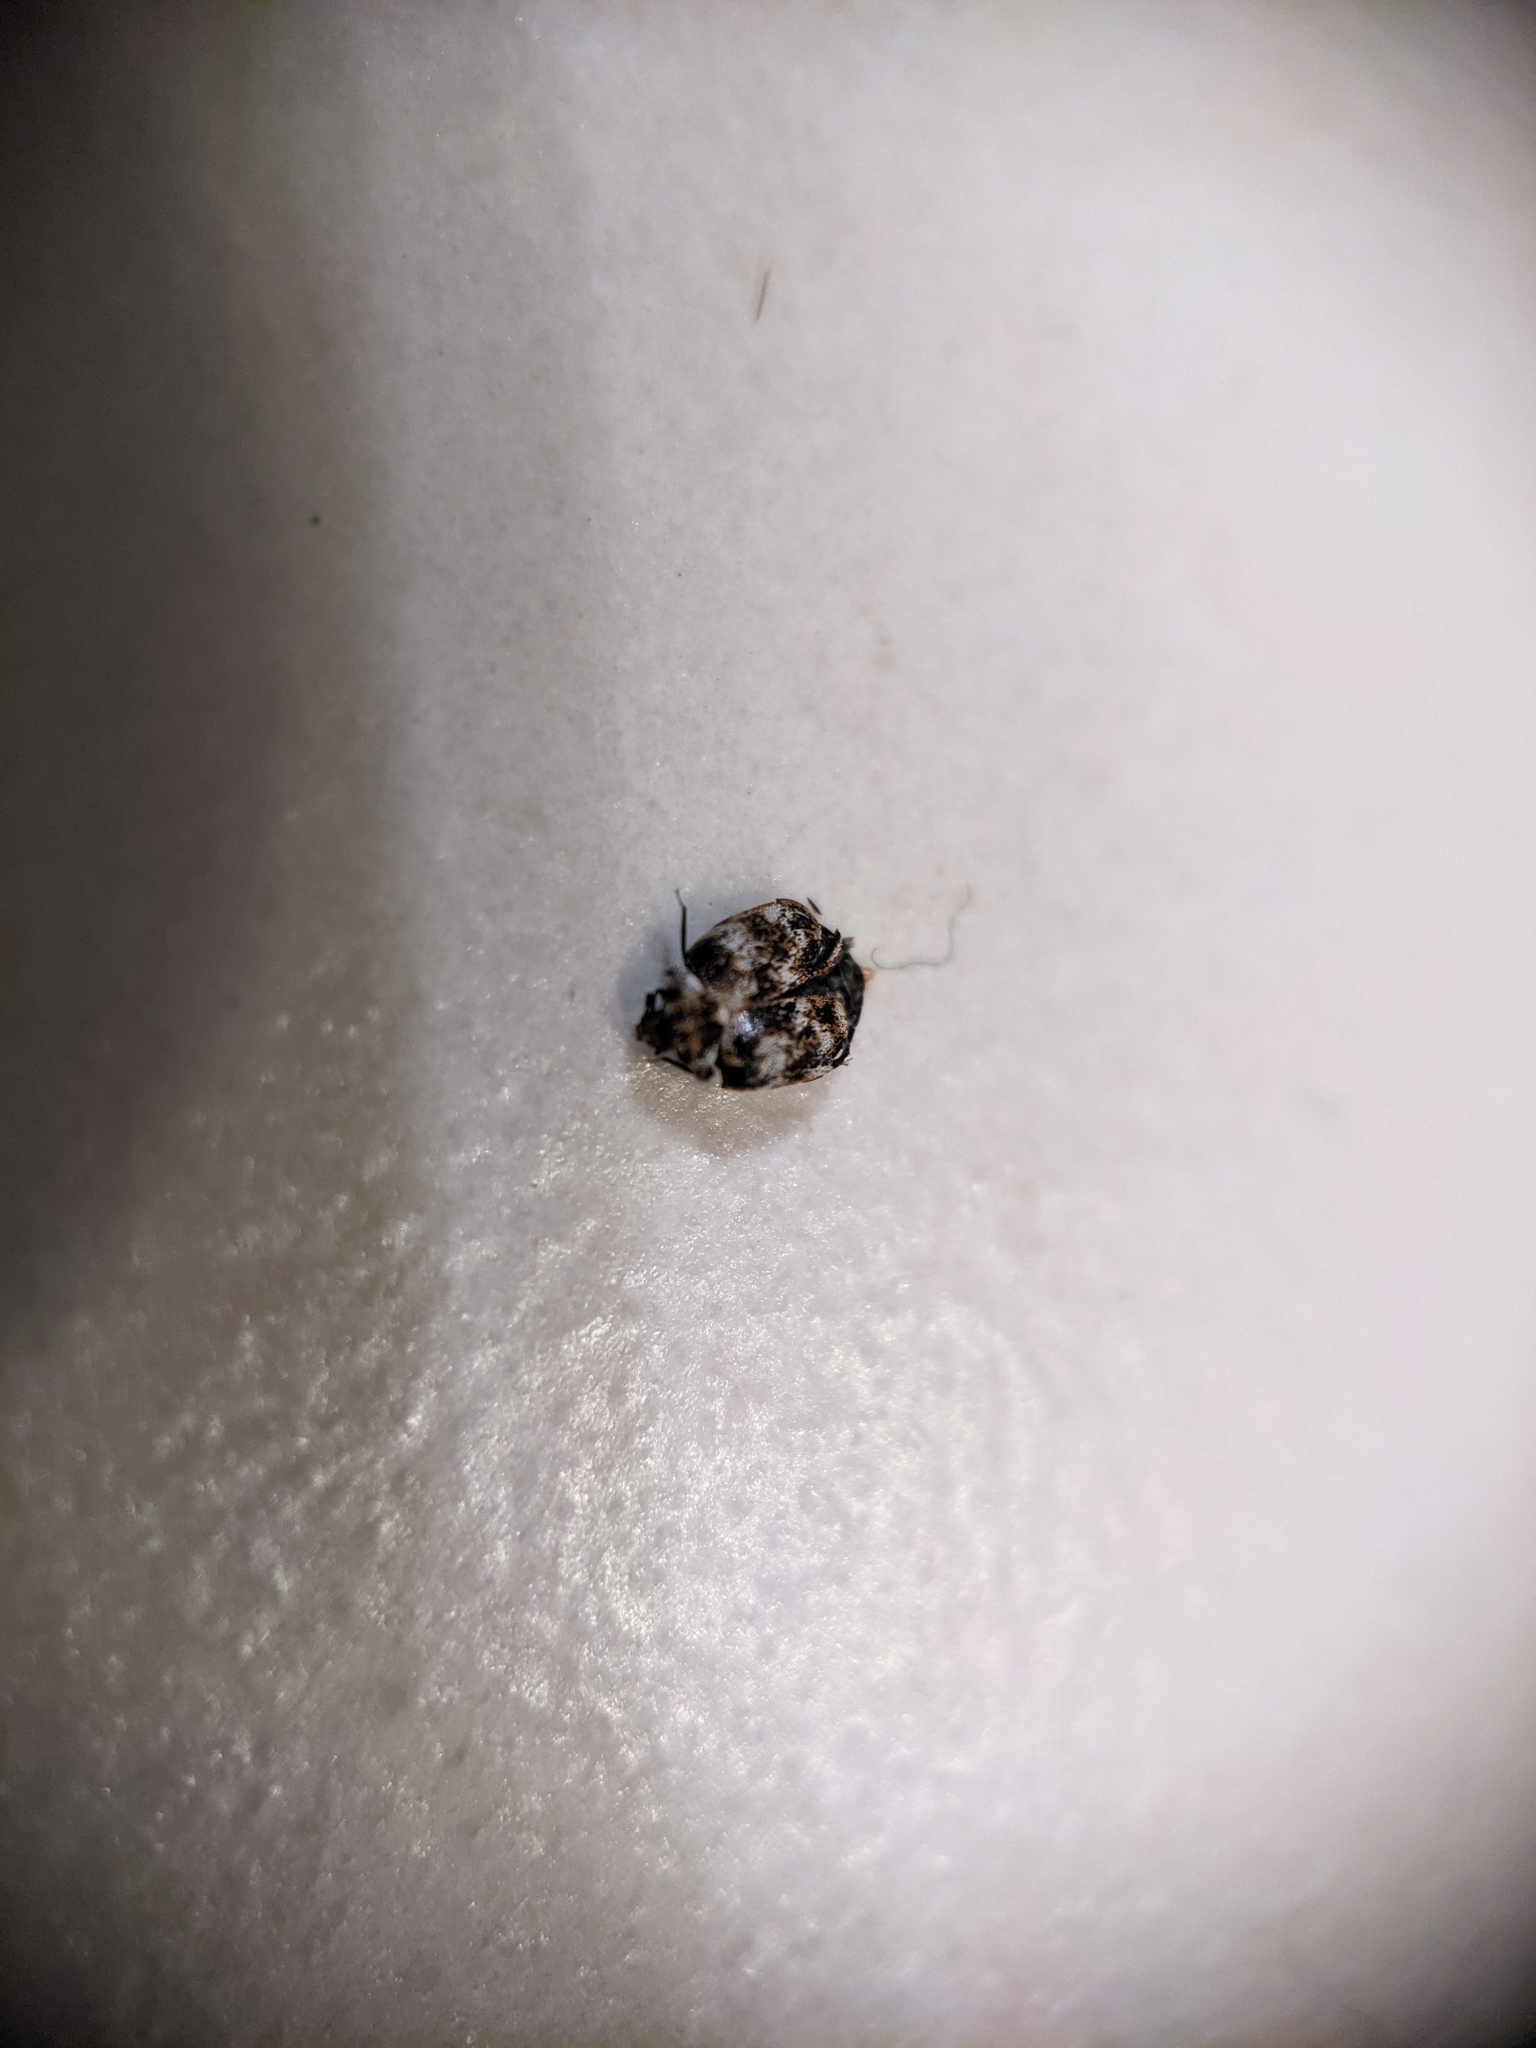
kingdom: Animalia
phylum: Arthropoda
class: Insecta
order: Coleoptera
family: Dermestidae
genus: Anthrenus
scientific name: Anthrenus verbasci
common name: Varied carpet beetle
